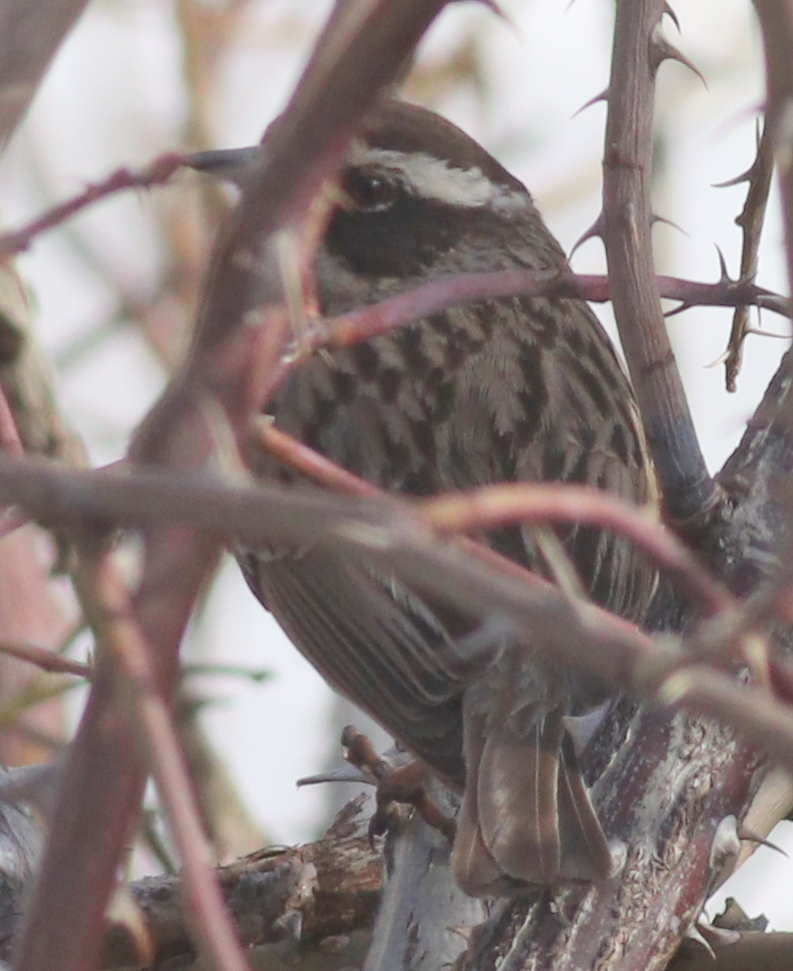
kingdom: Animalia
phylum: Chordata
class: Aves
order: Passeriformes
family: Prunellidae
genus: Prunella
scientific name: Prunella ocularis
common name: Radde's accentor
